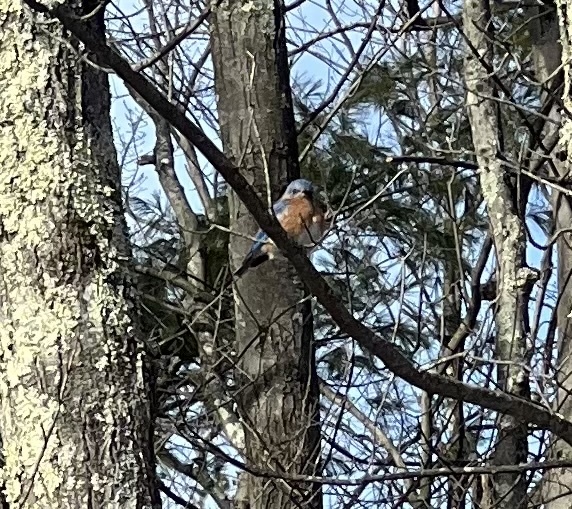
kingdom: Animalia
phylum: Chordata
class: Aves
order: Passeriformes
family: Turdidae
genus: Sialia
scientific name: Sialia sialis
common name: Eastern bluebird
